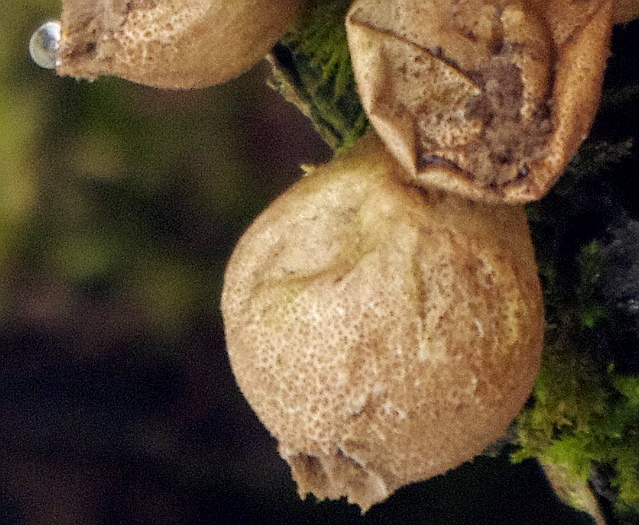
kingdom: Fungi
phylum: Basidiomycota
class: Agaricomycetes
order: Agaricales
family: Lycoperdaceae
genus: Apioperdon
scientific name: Apioperdon pyriforme
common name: Pear-shaped puffball
